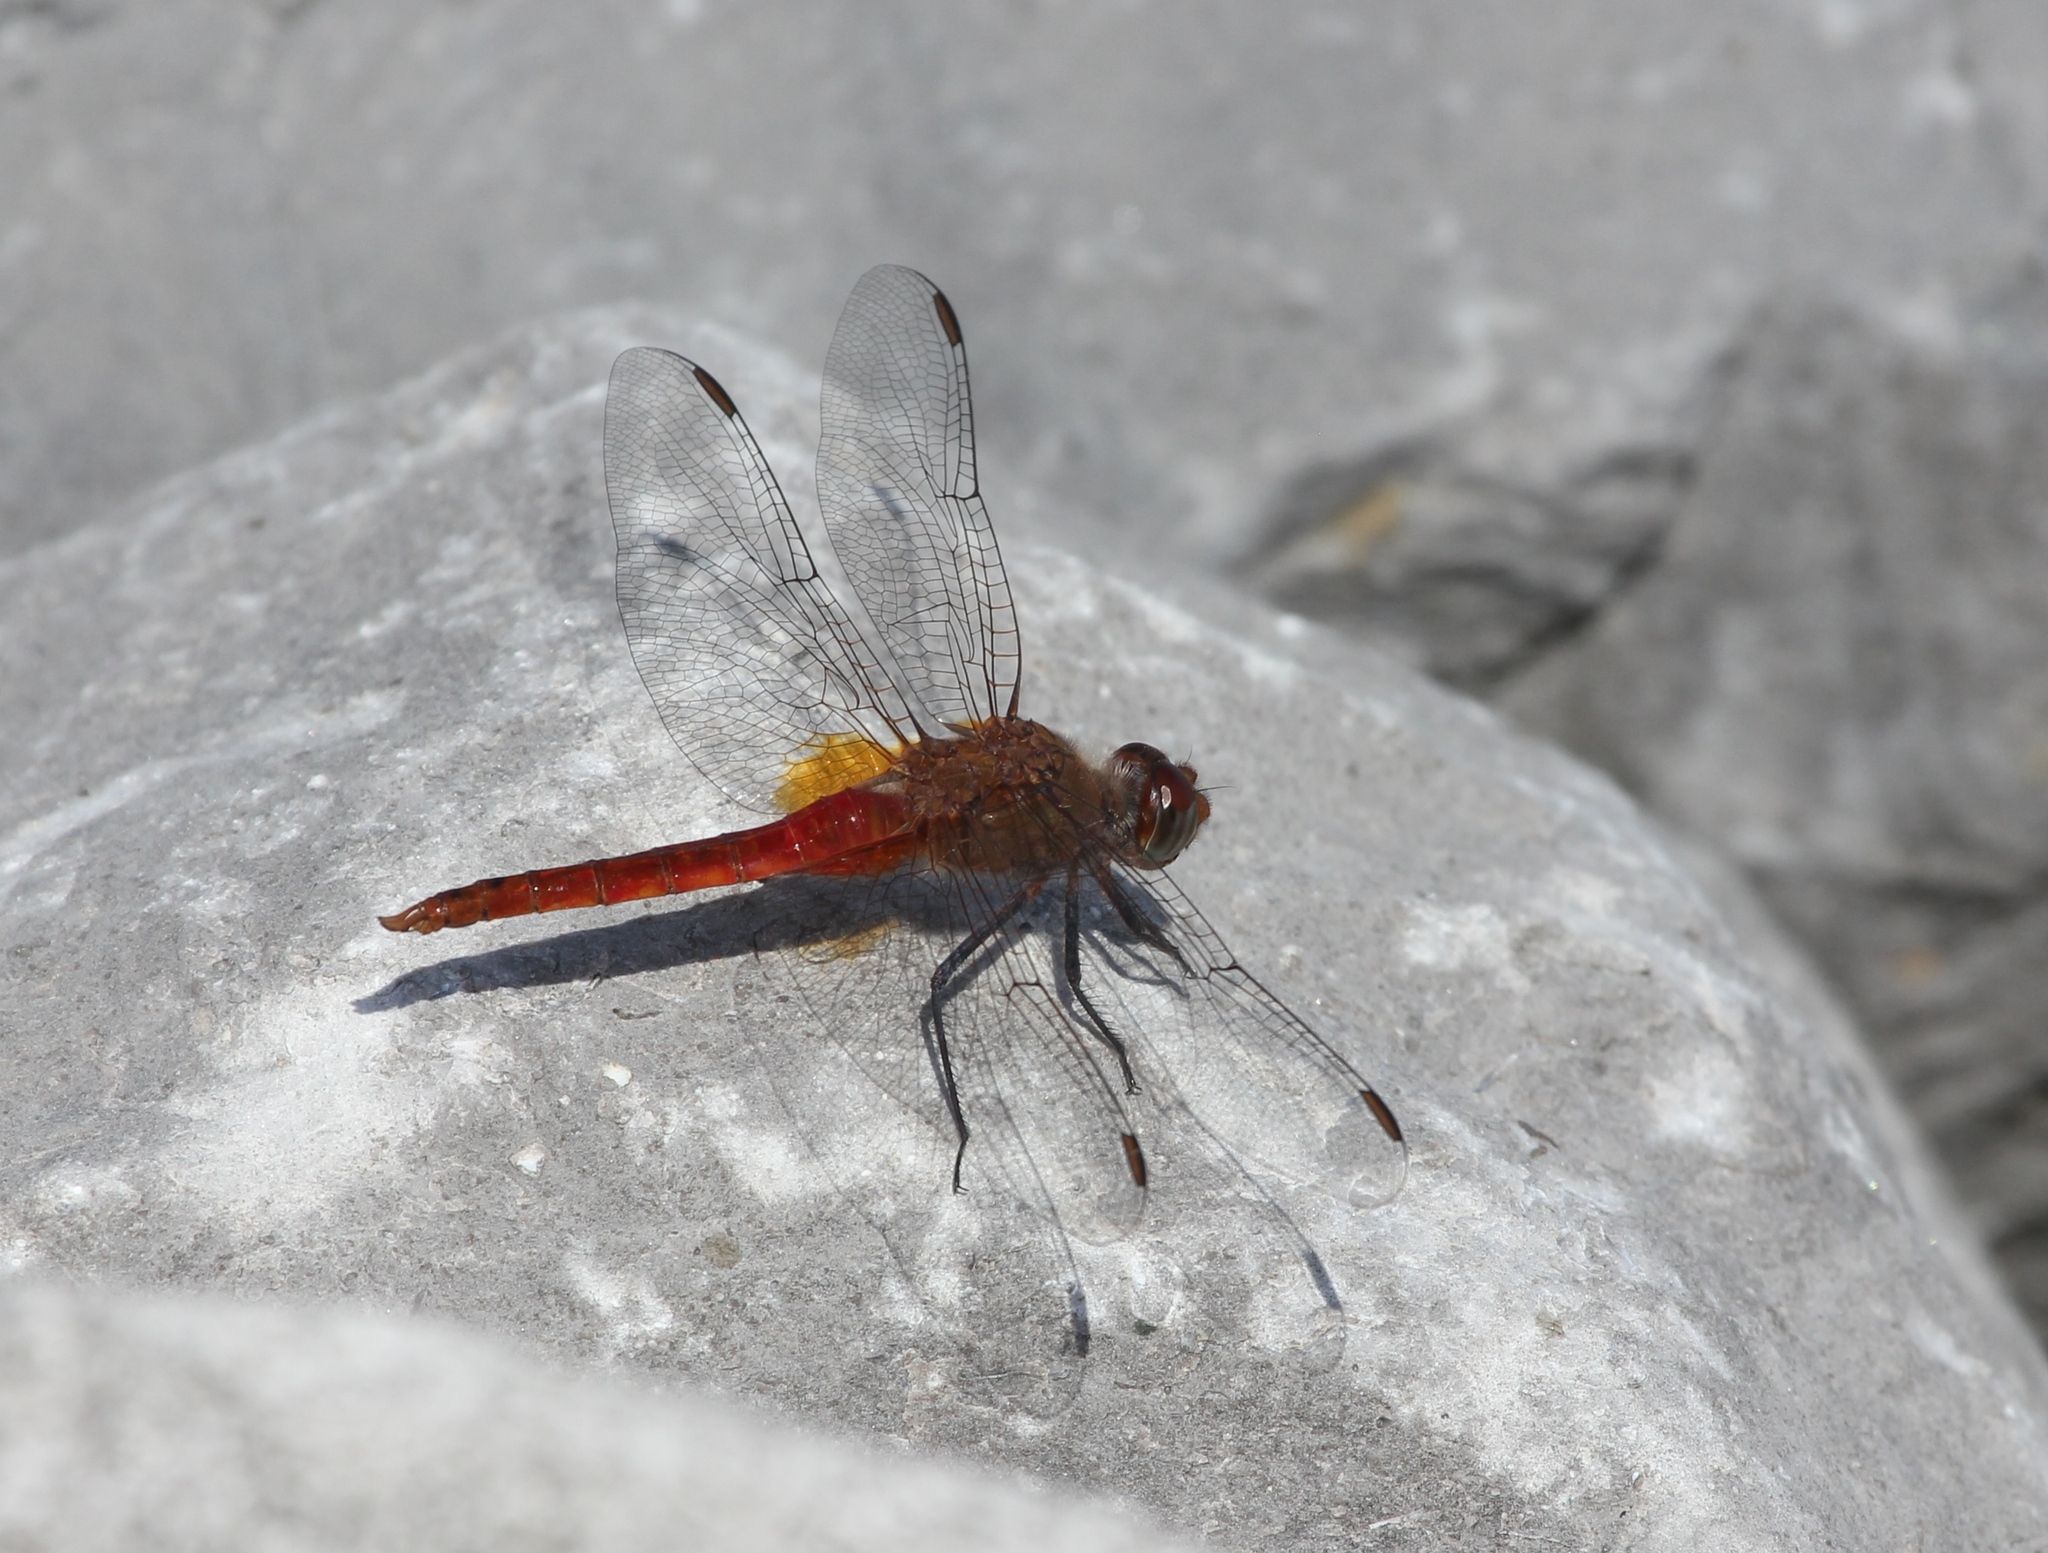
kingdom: Animalia
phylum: Arthropoda
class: Insecta
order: Odonata
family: Libellulidae
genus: Brachymesia
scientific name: Brachymesia furcata
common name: Red-taled pennant
